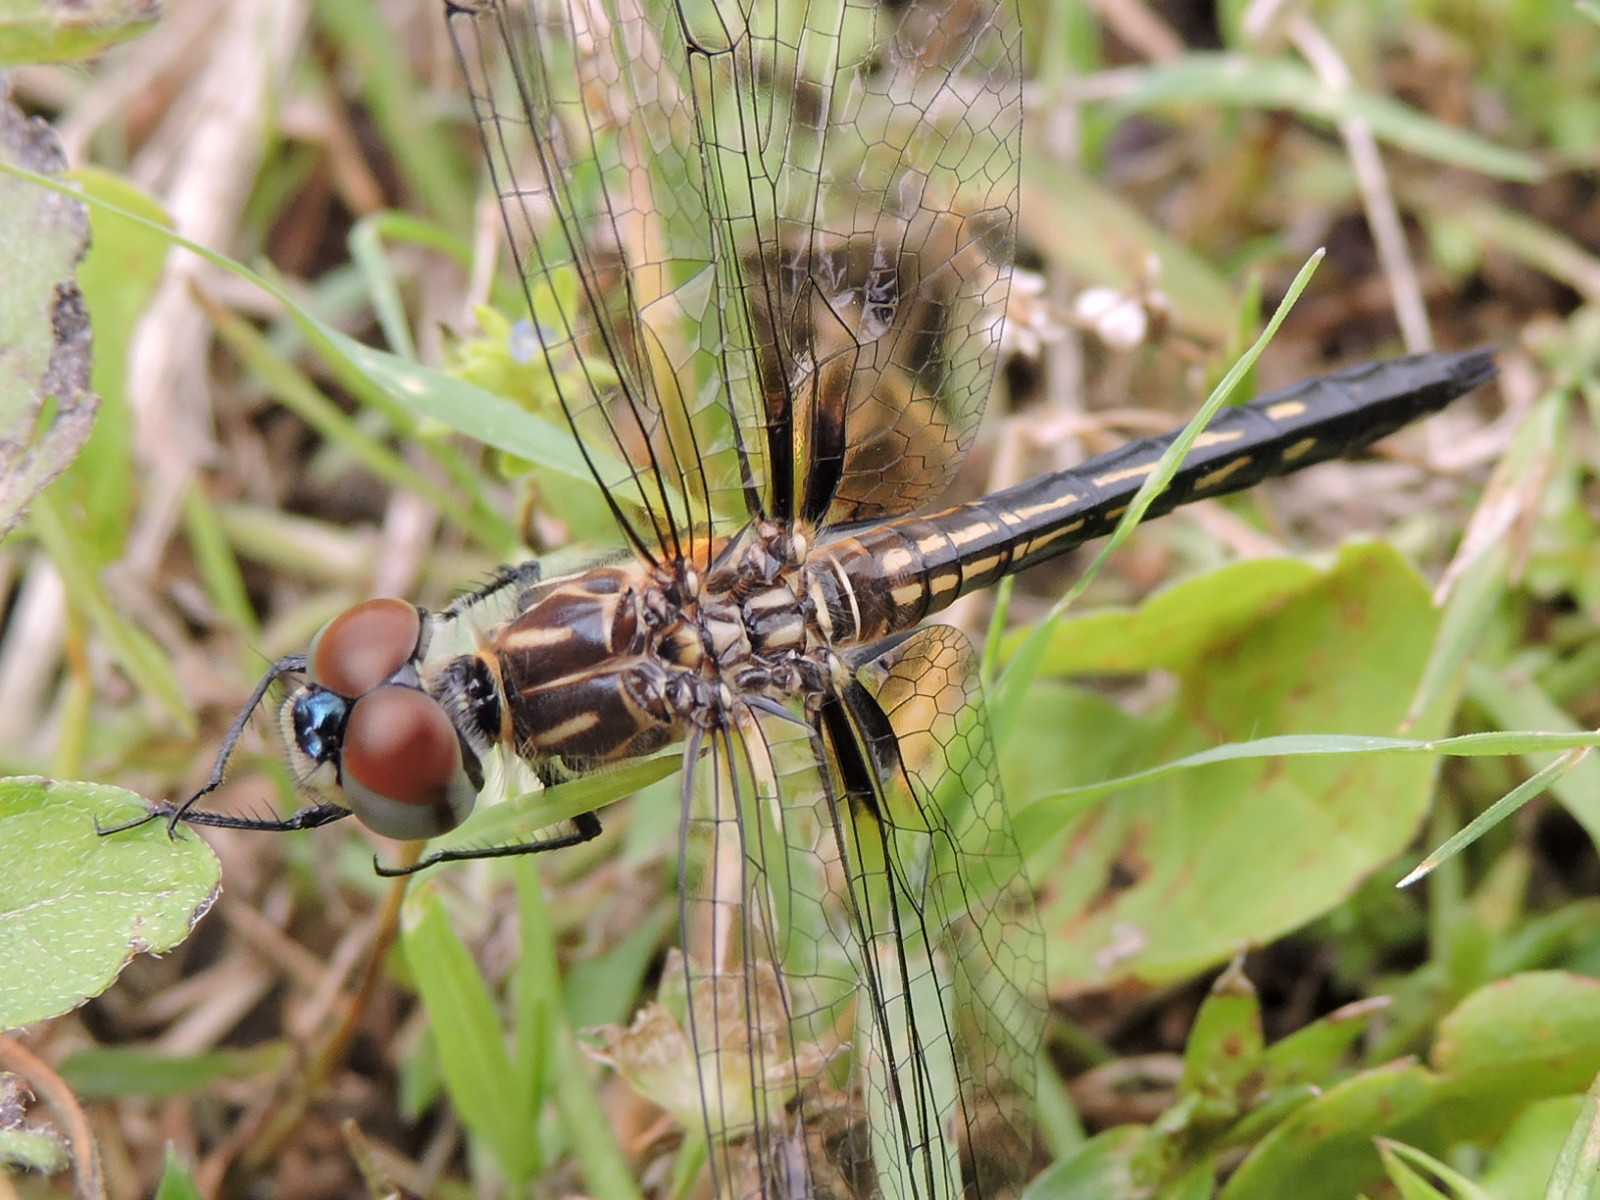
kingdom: Animalia
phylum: Arthropoda
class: Insecta
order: Odonata
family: Libellulidae
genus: Pachydiplax
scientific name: Pachydiplax longipennis
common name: Blue dasher
